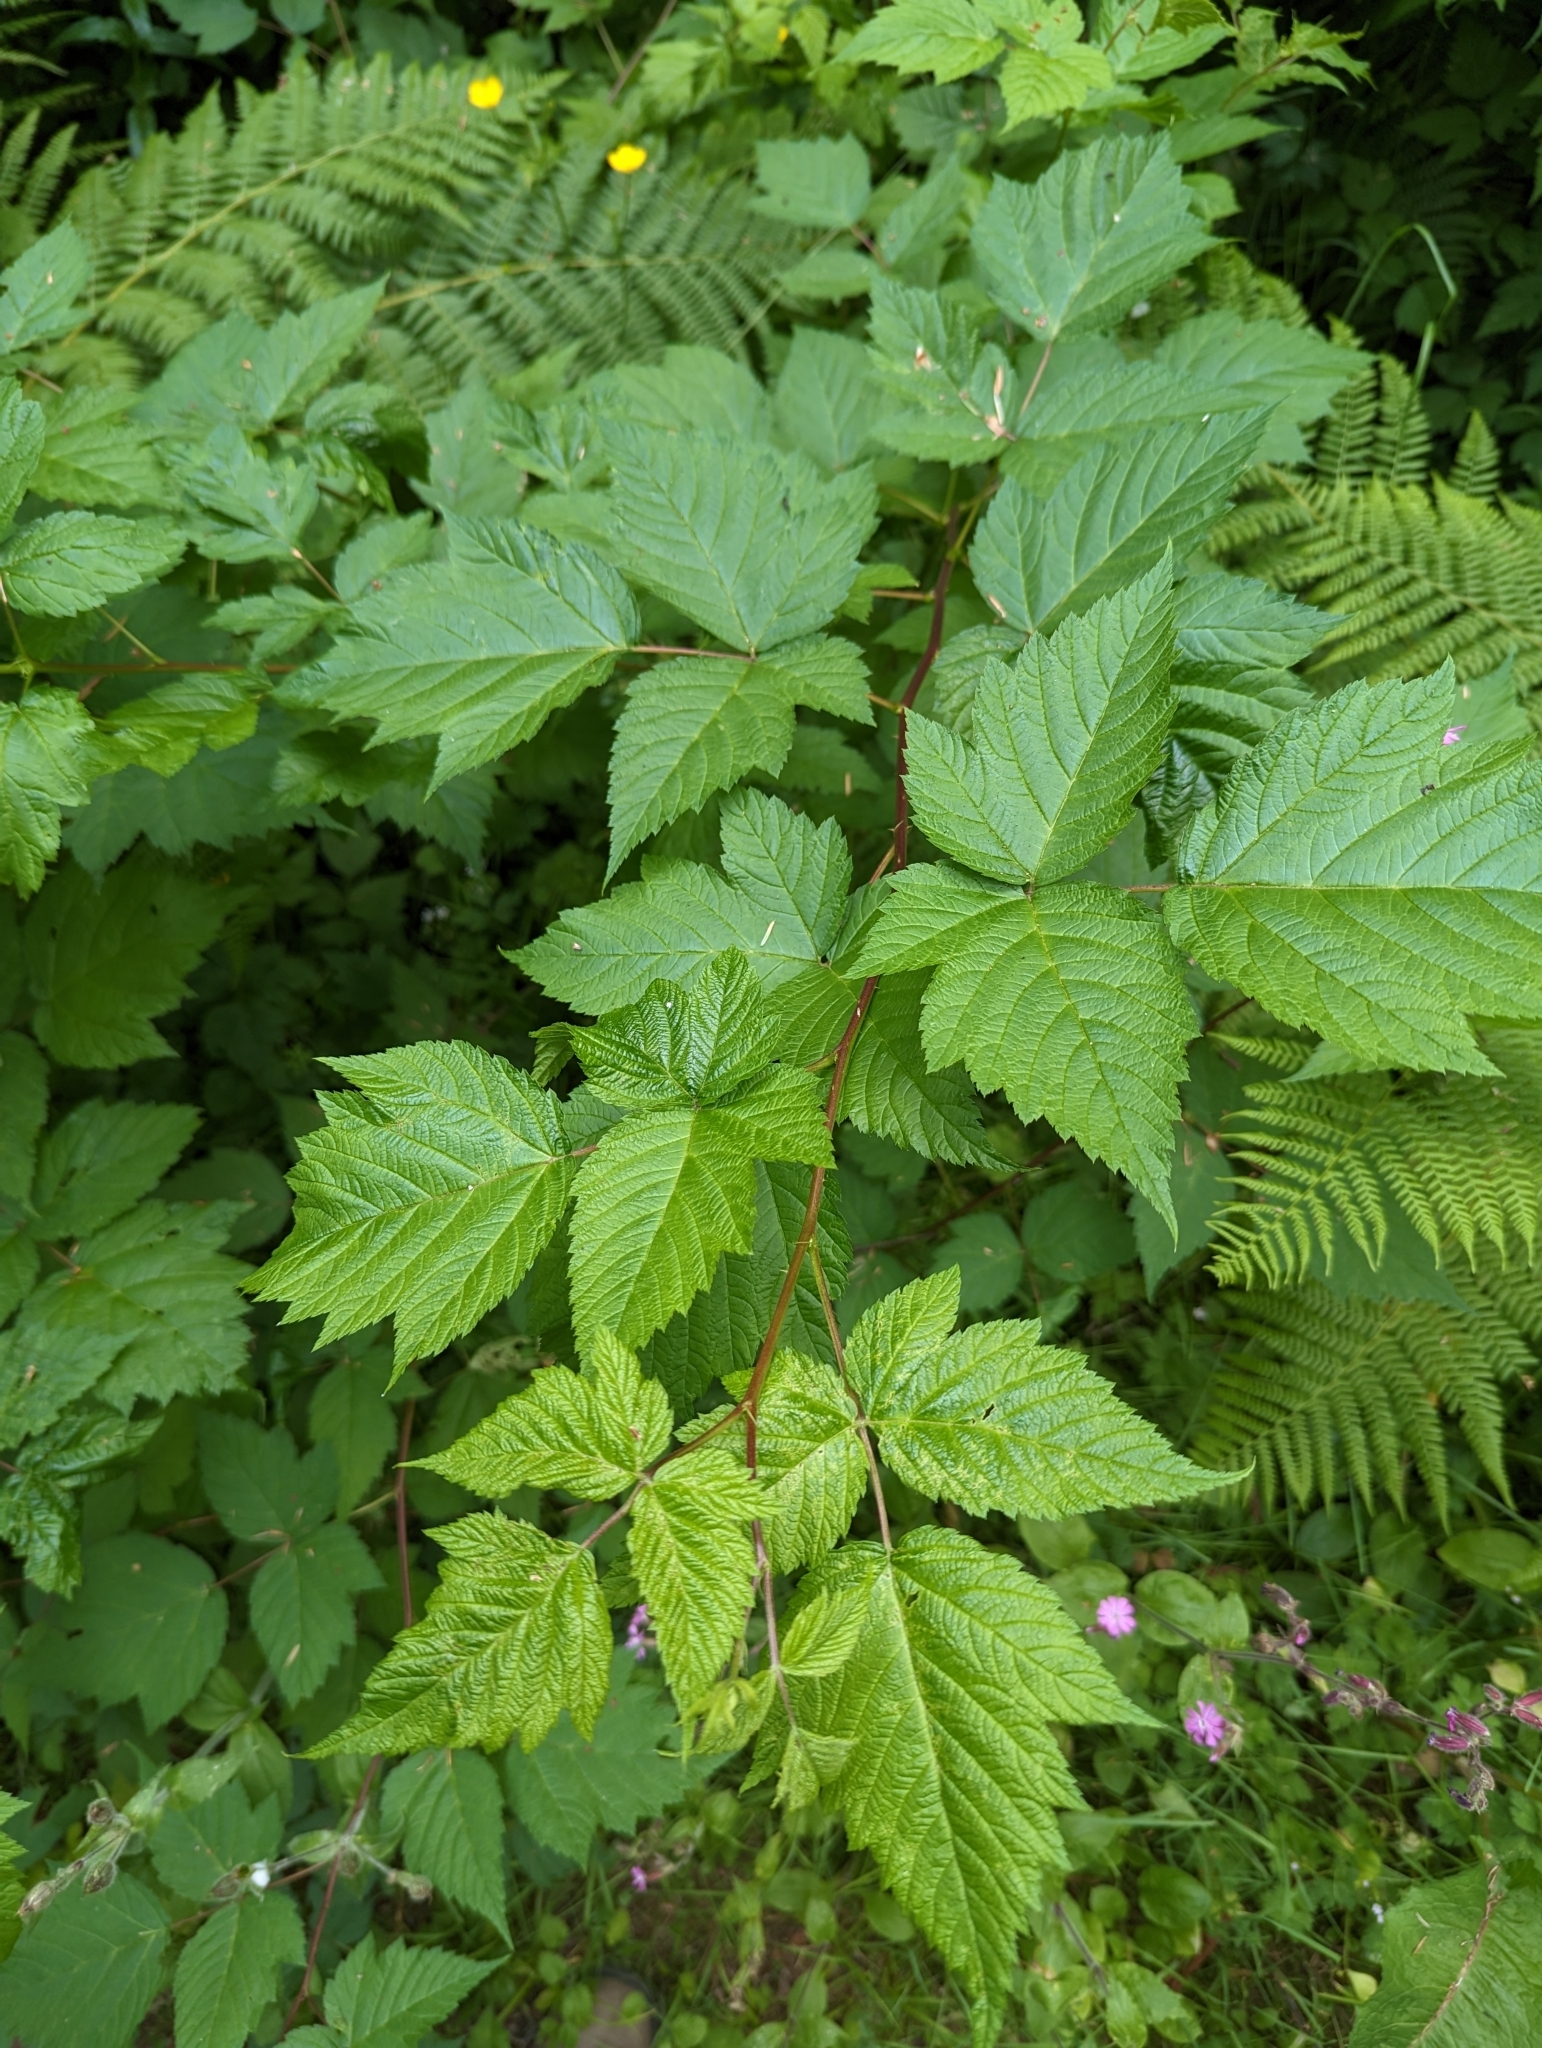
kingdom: Plantae
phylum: Tracheophyta
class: Magnoliopsida
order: Rosales
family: Rosaceae
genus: Rubus
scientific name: Rubus spectabilis
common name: Salmonberry
